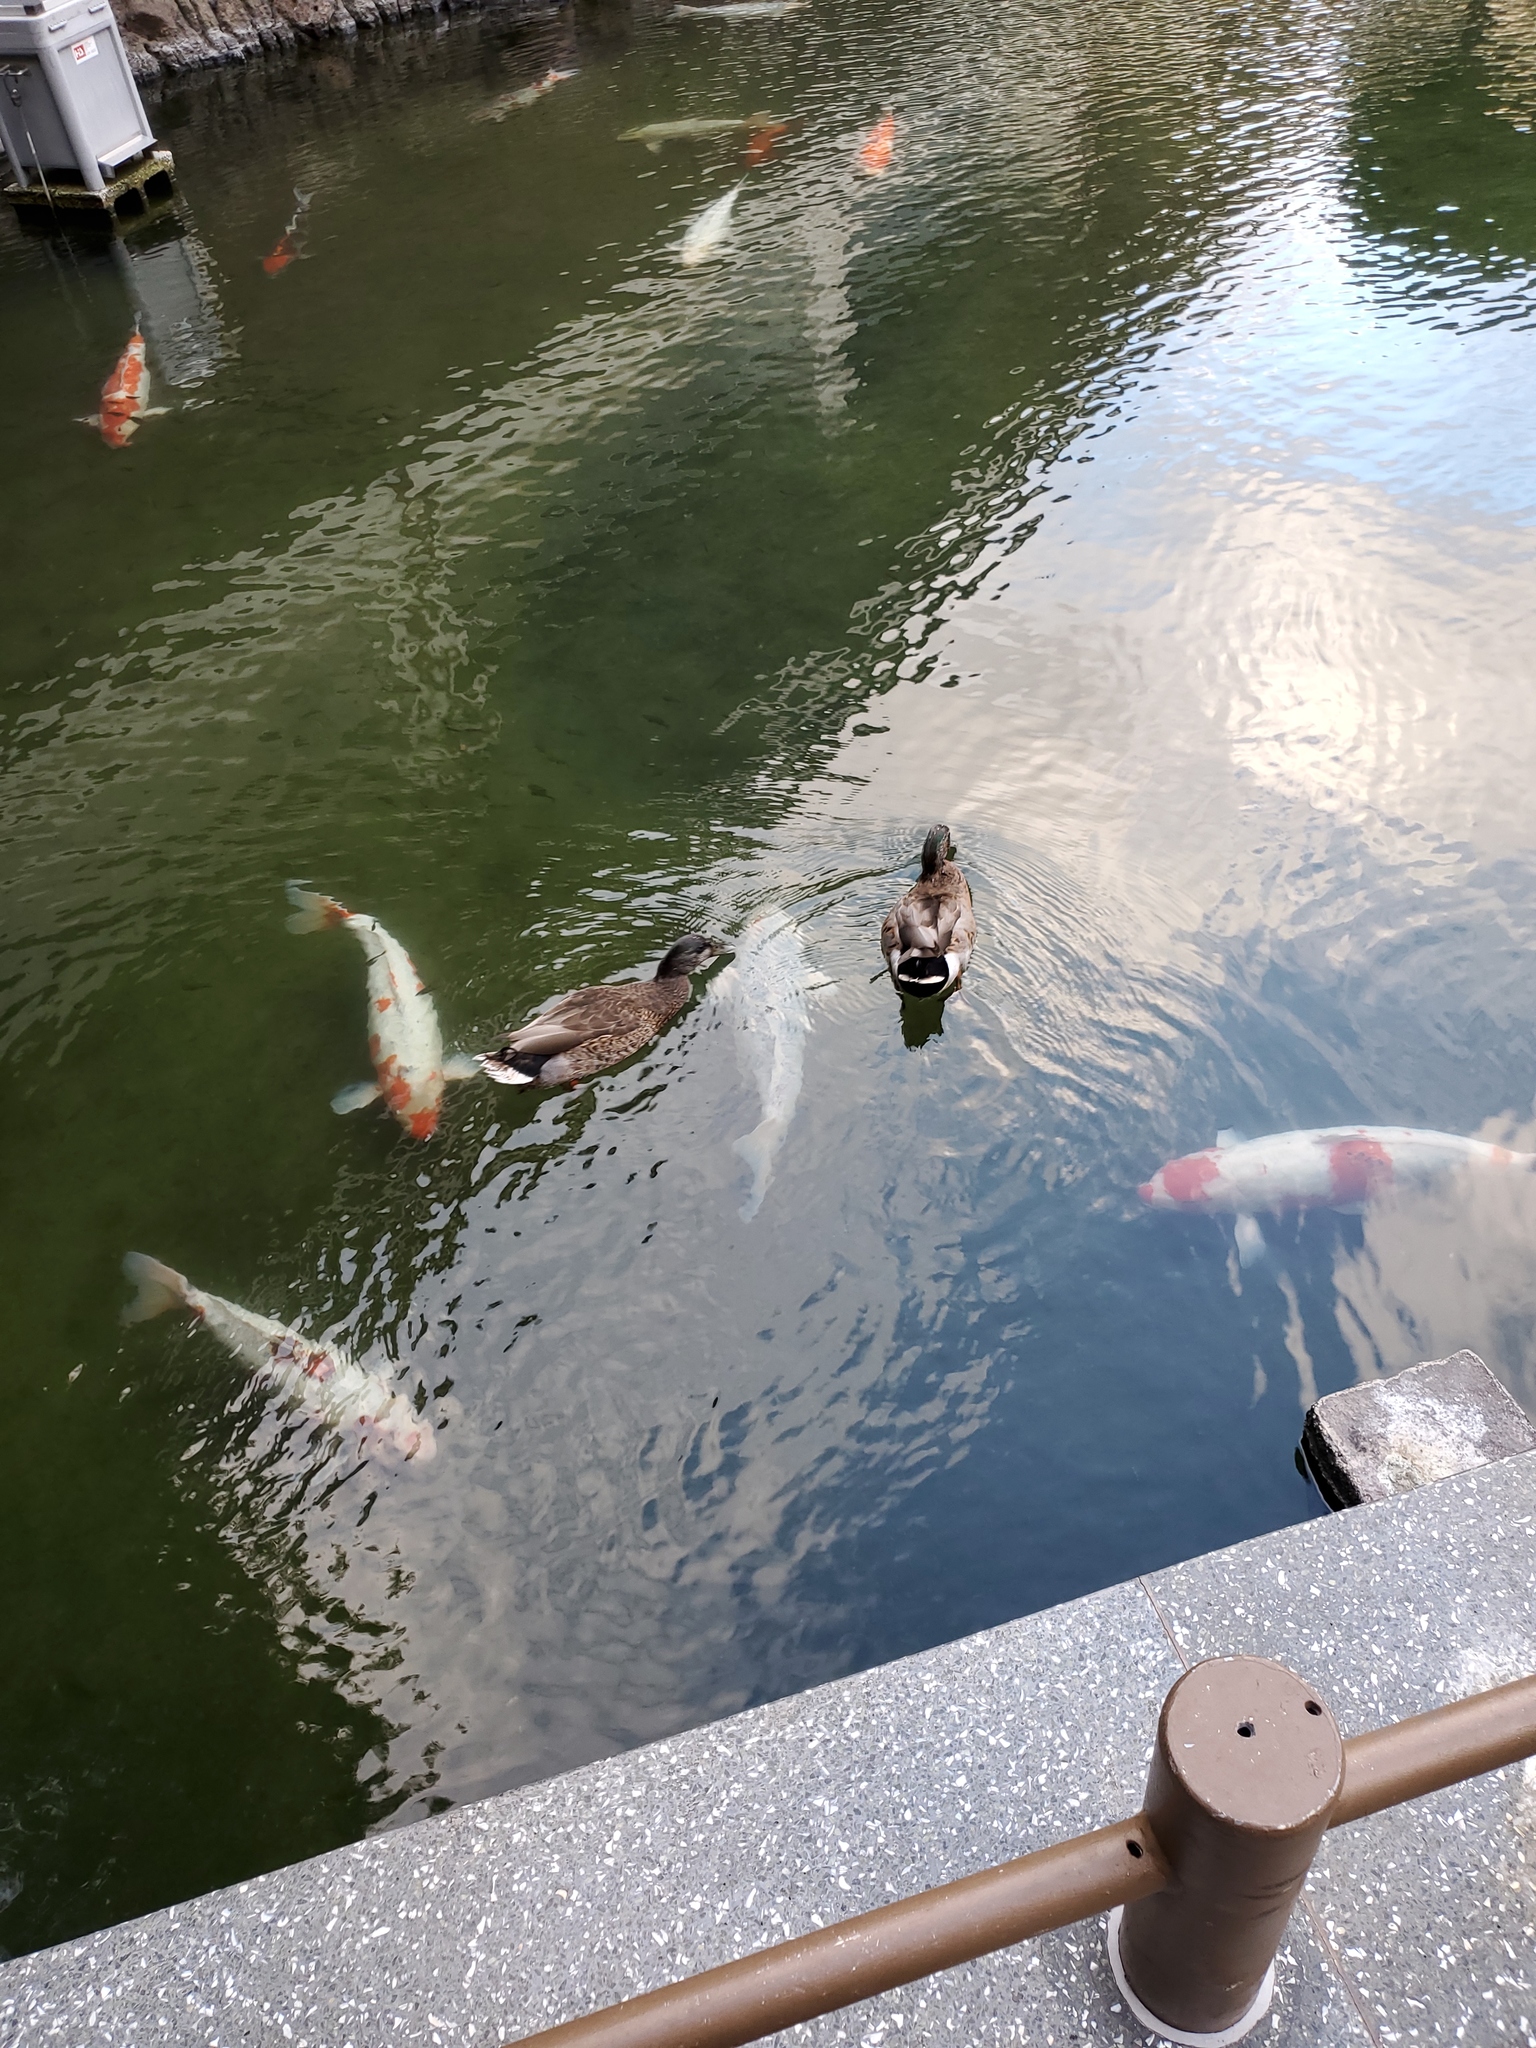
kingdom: Animalia
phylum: Chordata
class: Aves
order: Anseriformes
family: Anatidae
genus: Anas
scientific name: Anas platyrhynchos
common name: Mallard
